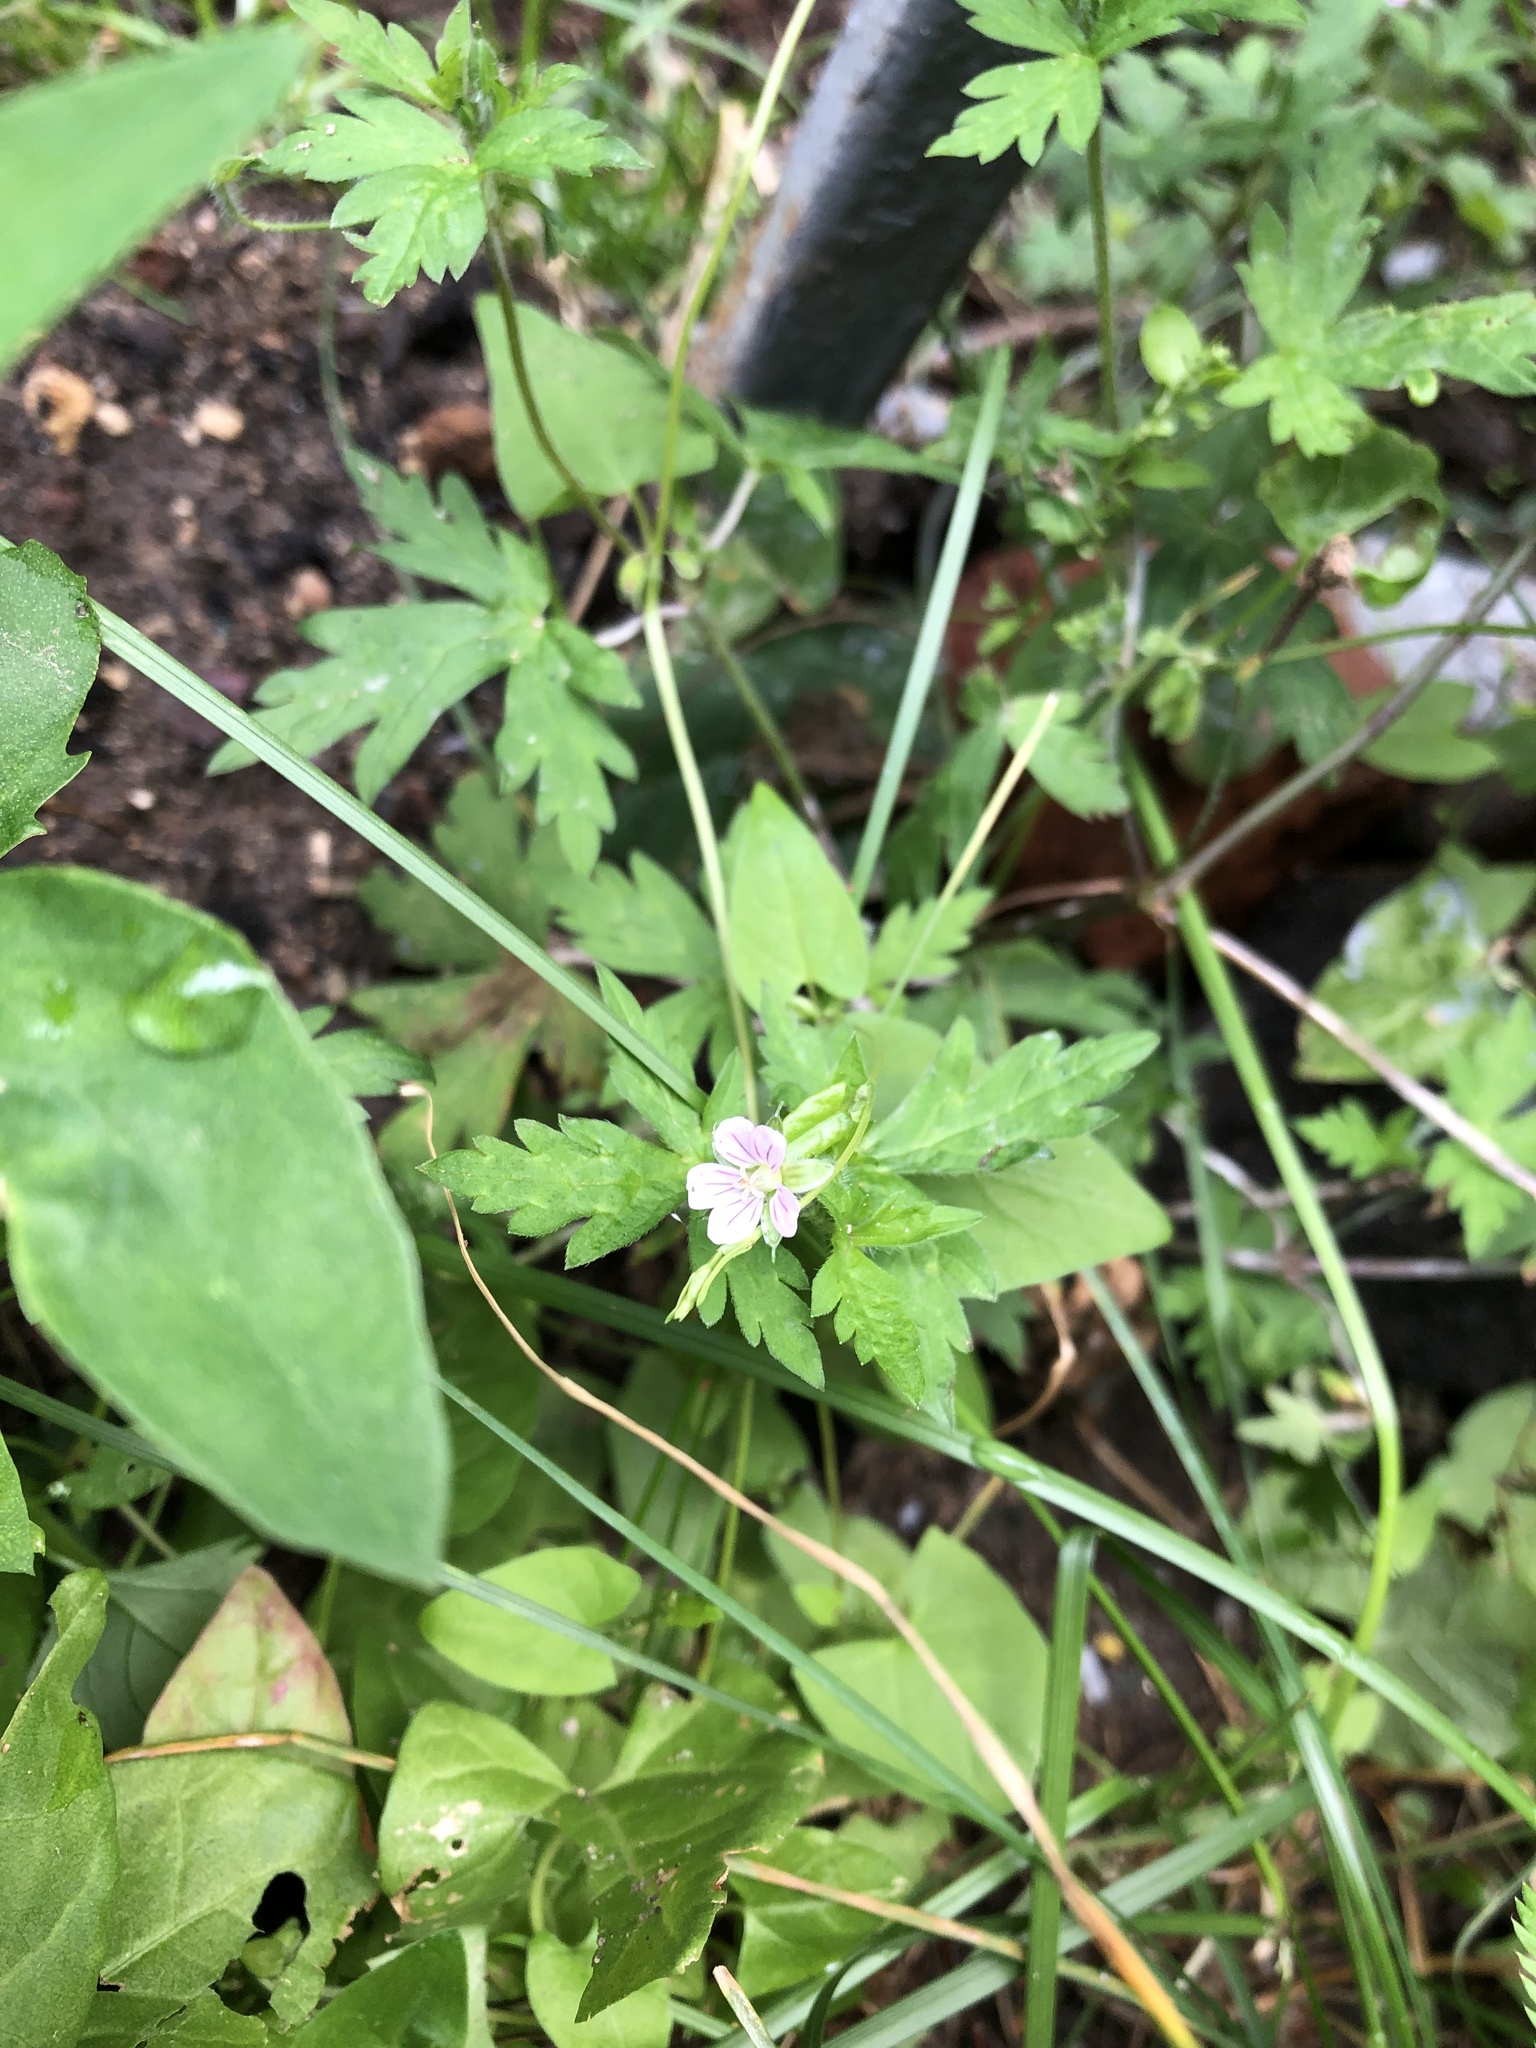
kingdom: Plantae
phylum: Tracheophyta
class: Magnoliopsida
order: Geraniales
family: Geraniaceae
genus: Geranium
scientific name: Geranium sibiricum
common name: Siberian crane's-bill
